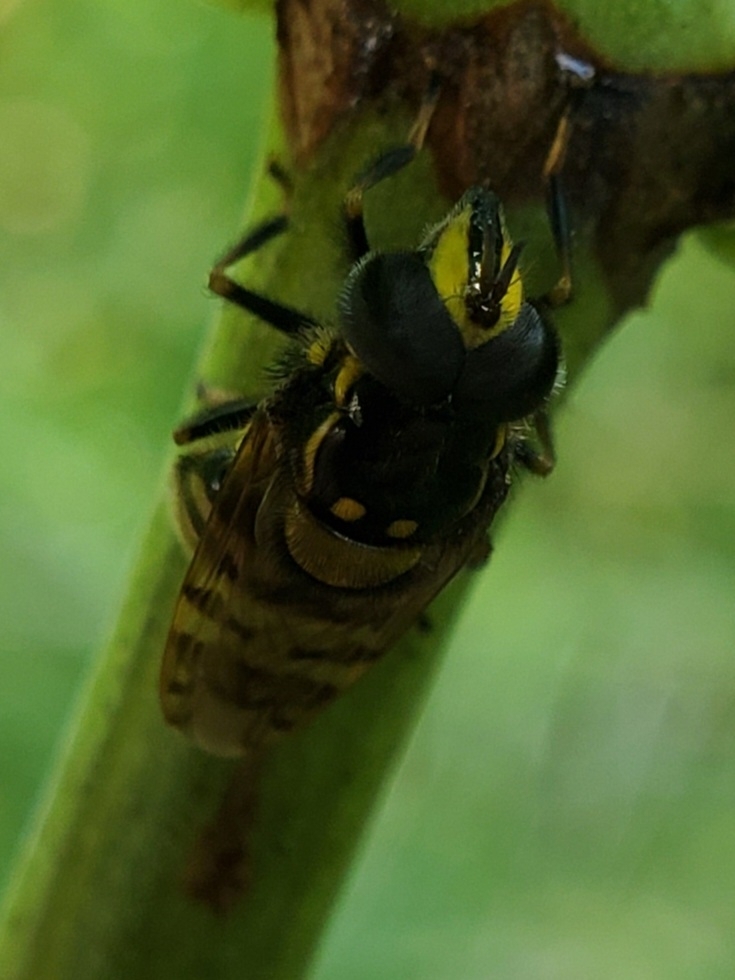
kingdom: Animalia
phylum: Arthropoda
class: Insecta
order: Diptera
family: Syrphidae
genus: Copestylum
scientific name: Copestylum vittatum
